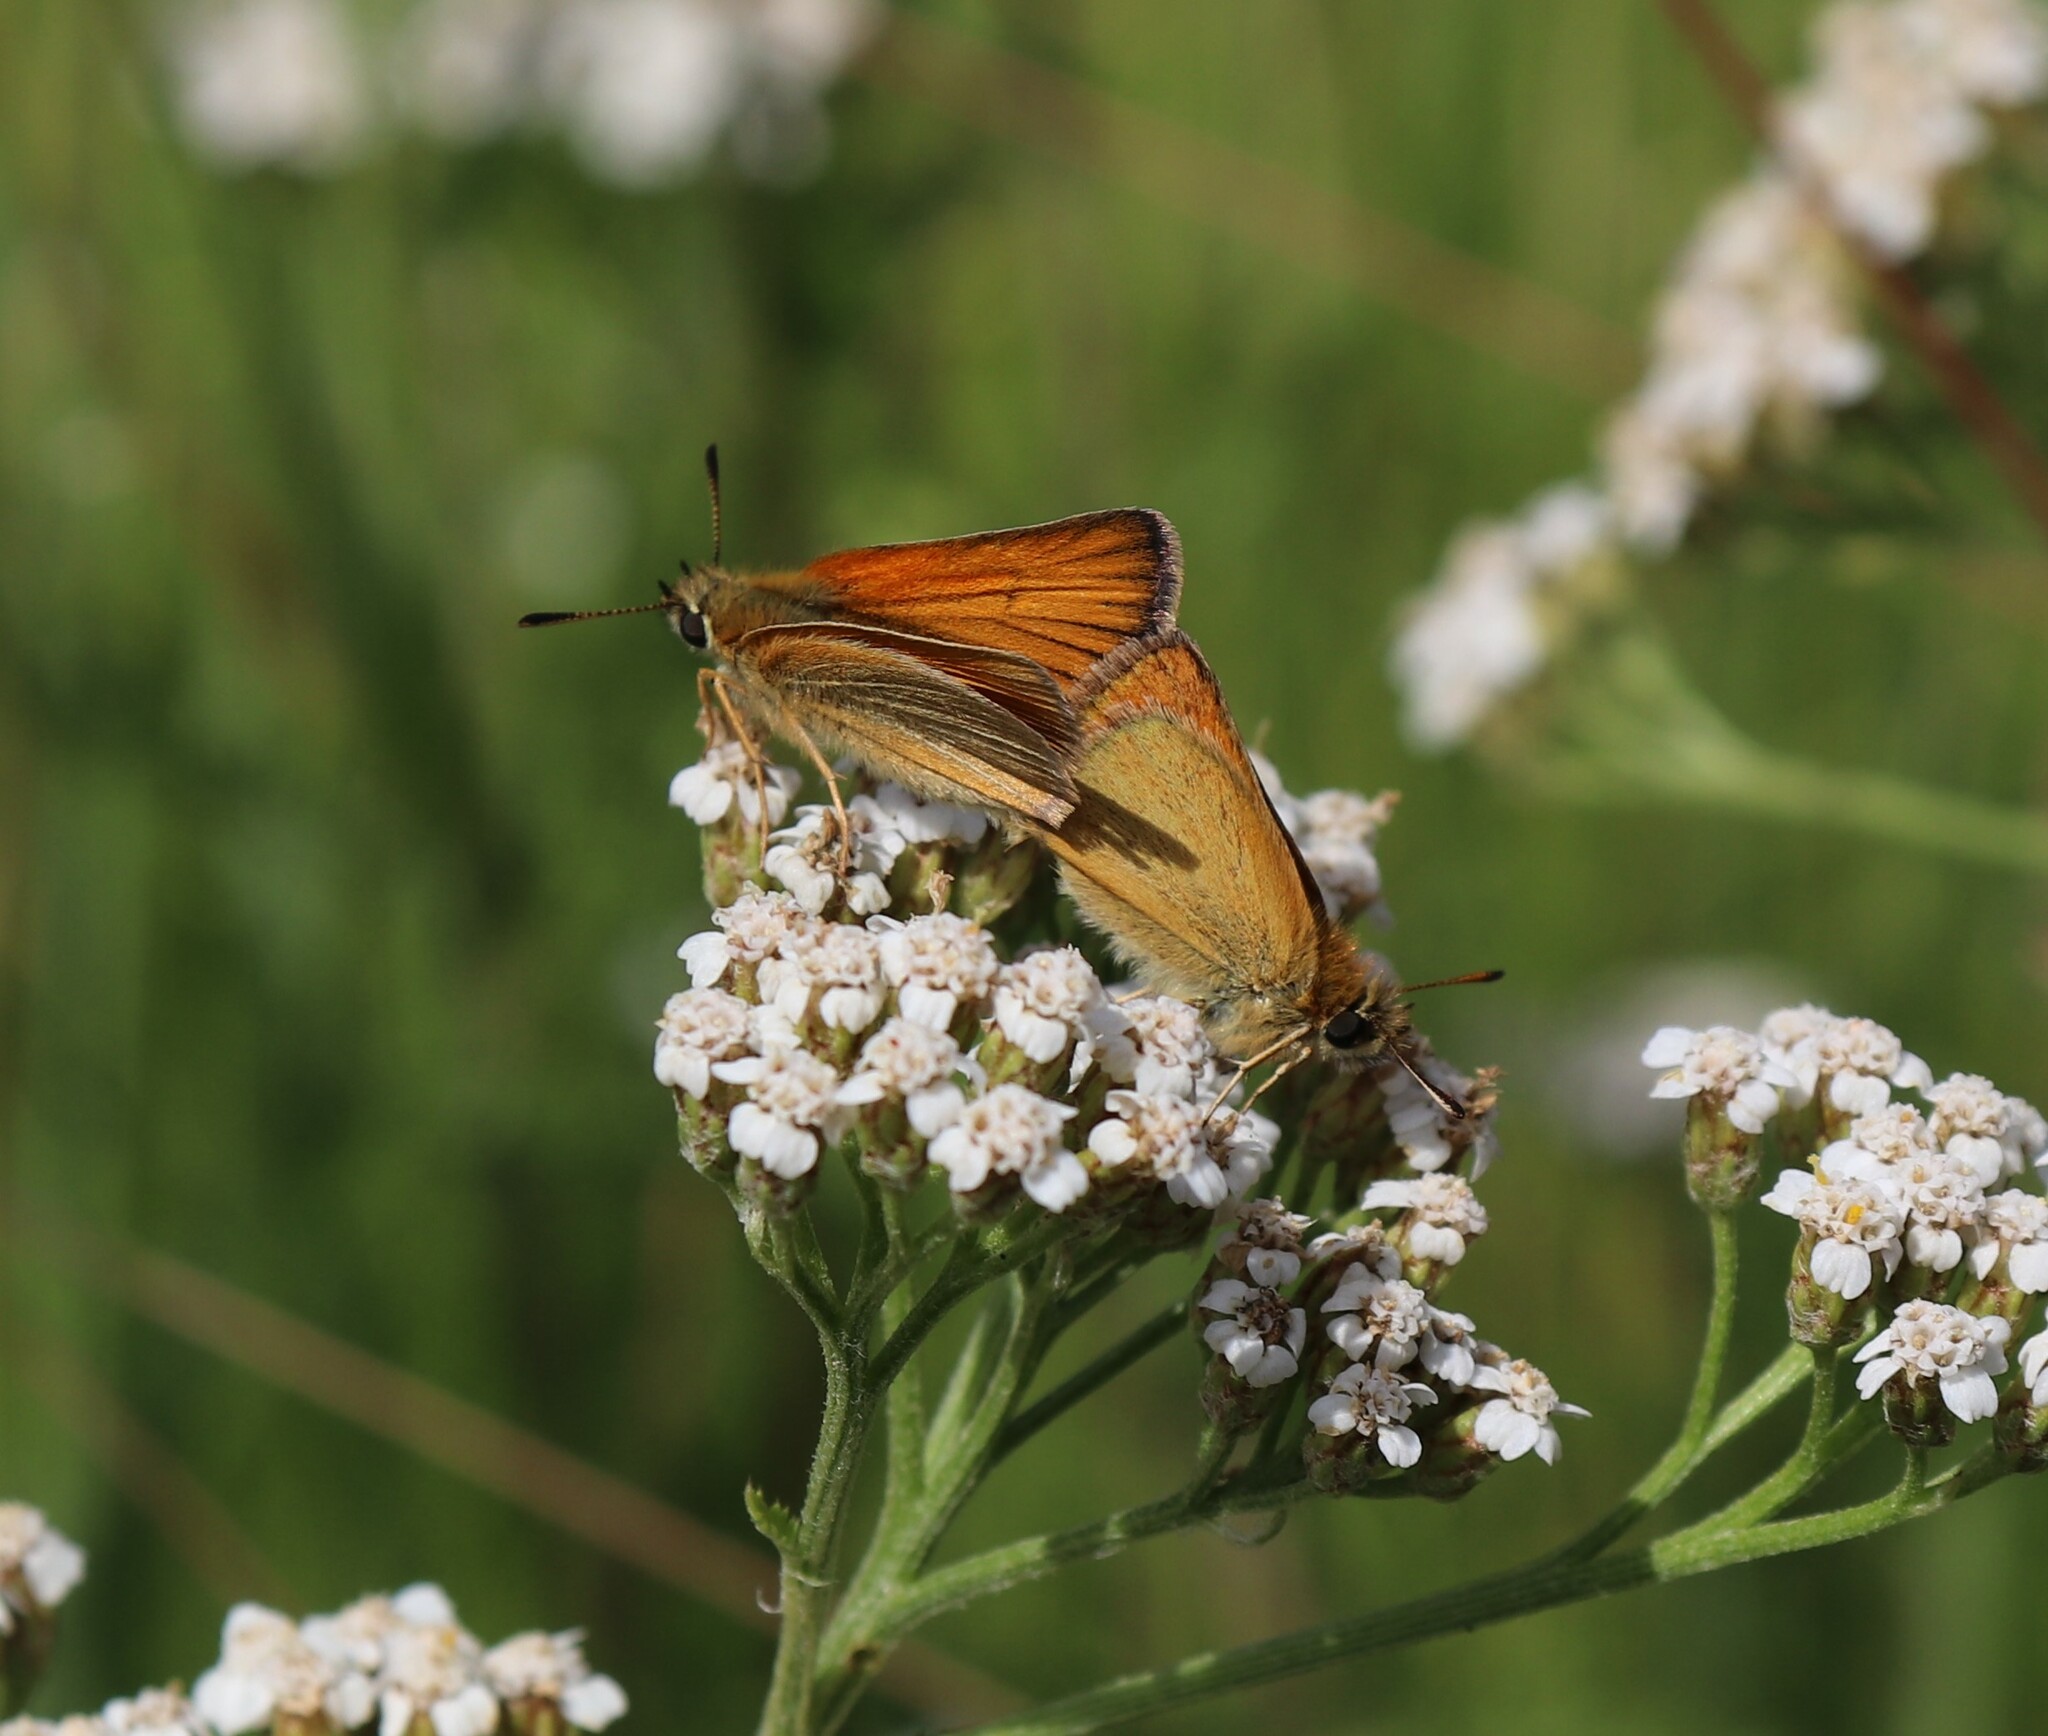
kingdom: Animalia
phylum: Arthropoda
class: Insecta
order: Lepidoptera
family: Hesperiidae
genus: Thymelicus
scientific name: Thymelicus lineola
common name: Essex skipper
